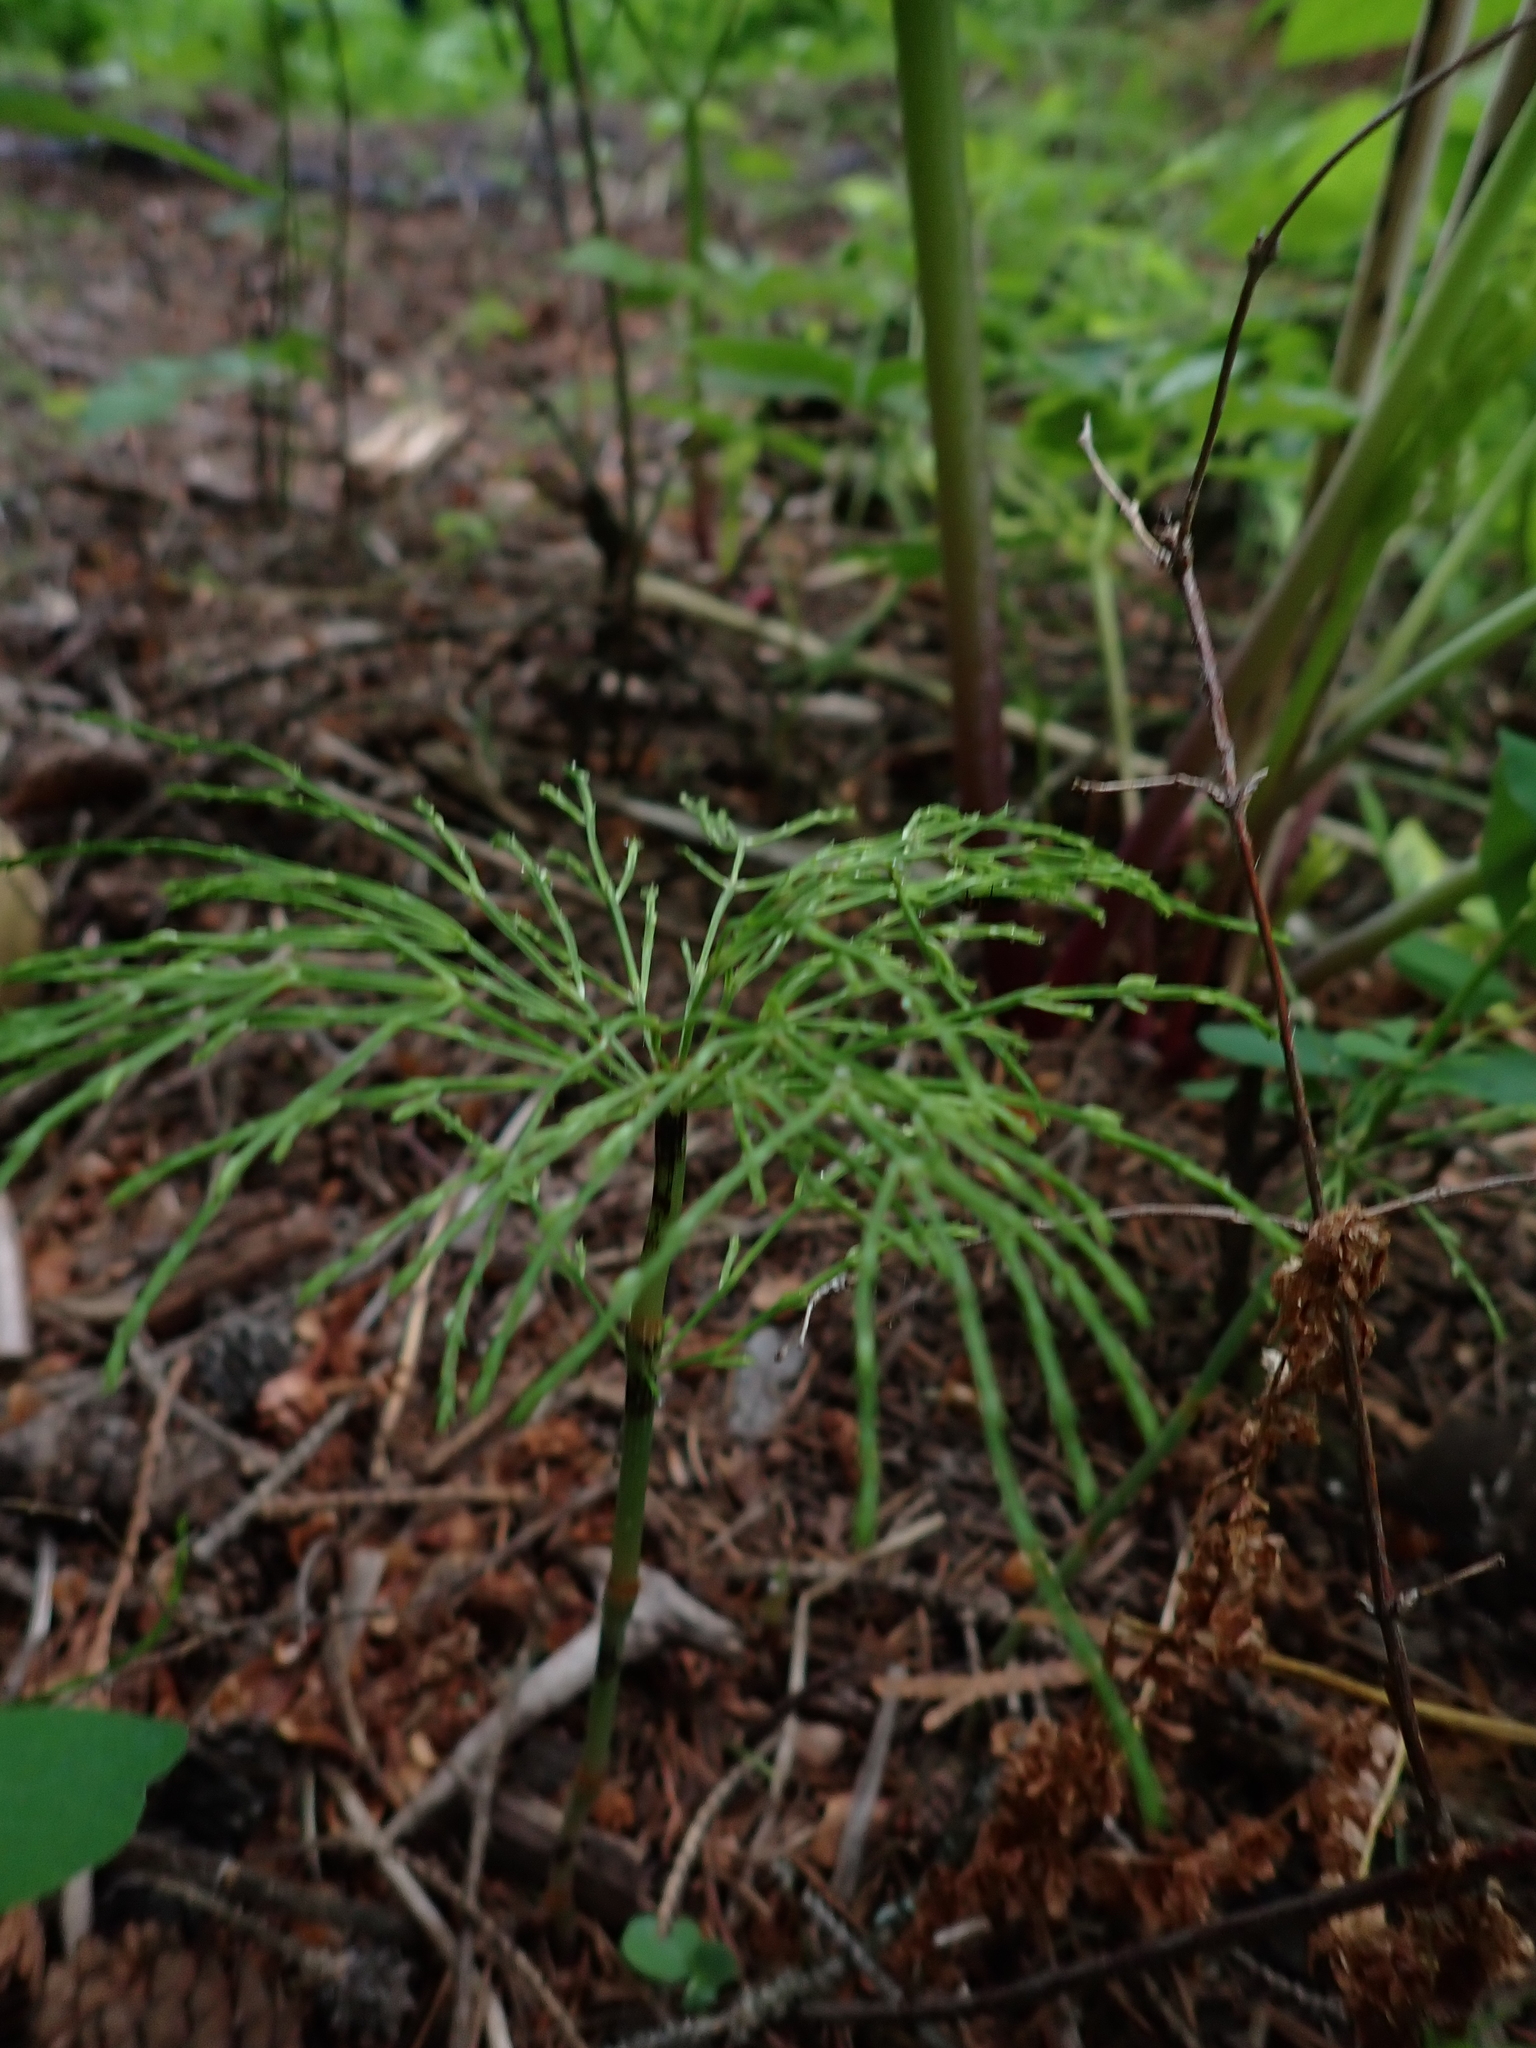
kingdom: Plantae
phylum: Tracheophyta
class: Polypodiopsida
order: Equisetales
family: Equisetaceae
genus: Equisetum
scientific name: Equisetum sylvaticum
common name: Wood horsetail
